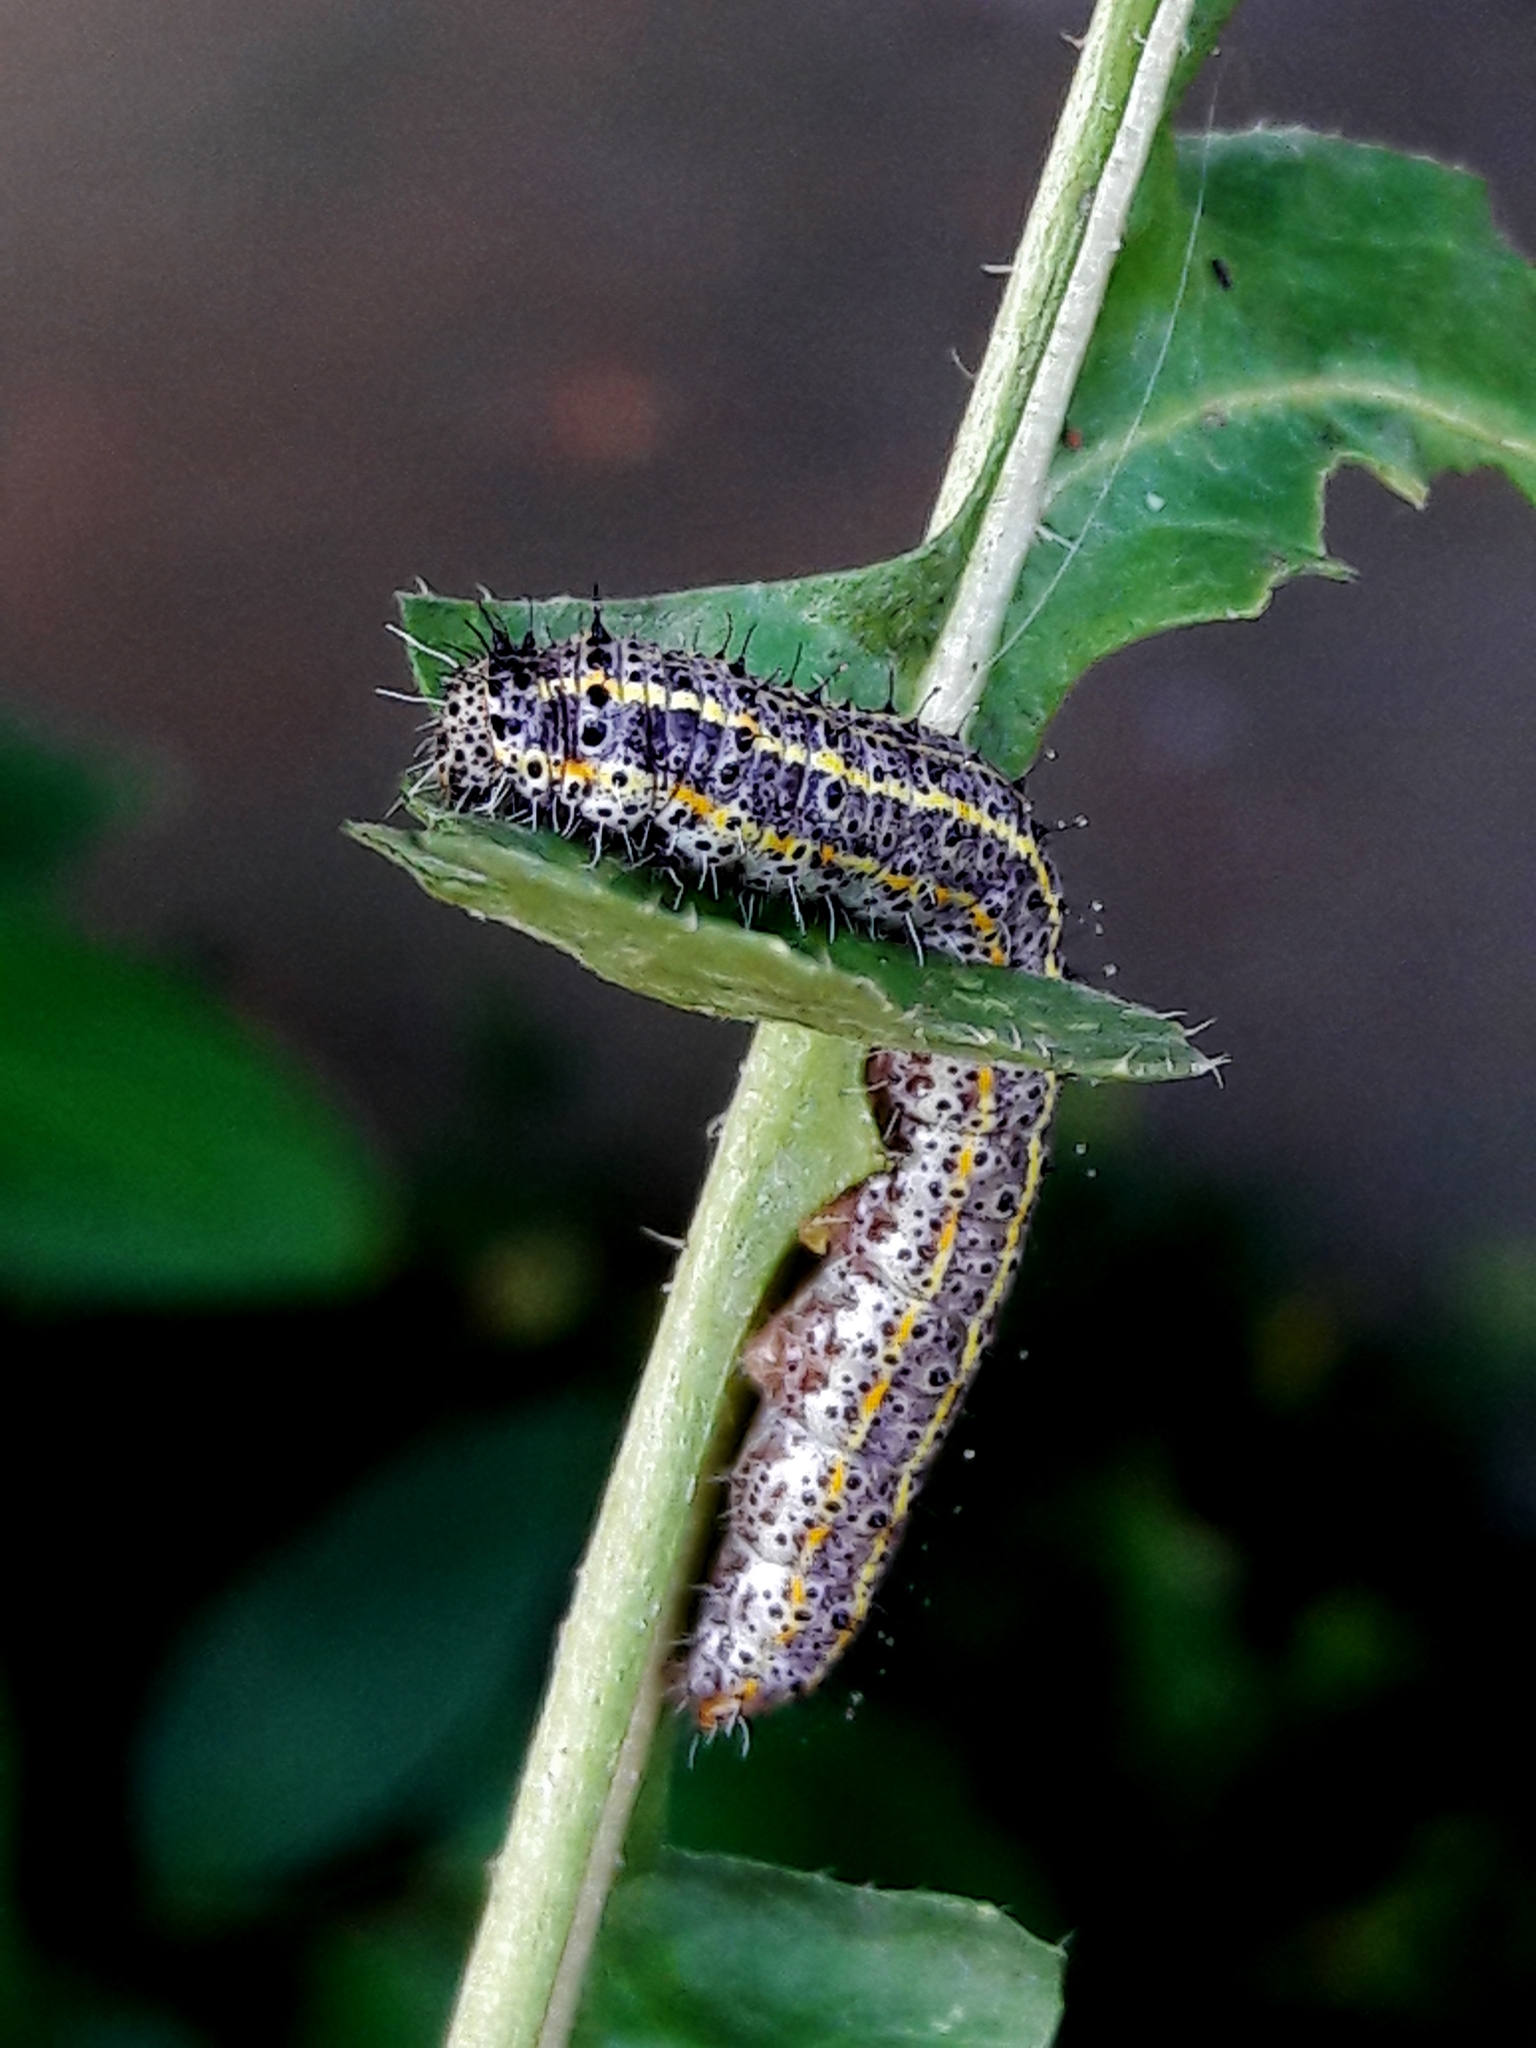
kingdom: Animalia
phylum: Arthropoda
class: Insecta
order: Lepidoptera
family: Pieridae
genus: Ascia
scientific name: Ascia monuste
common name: Great southern white
